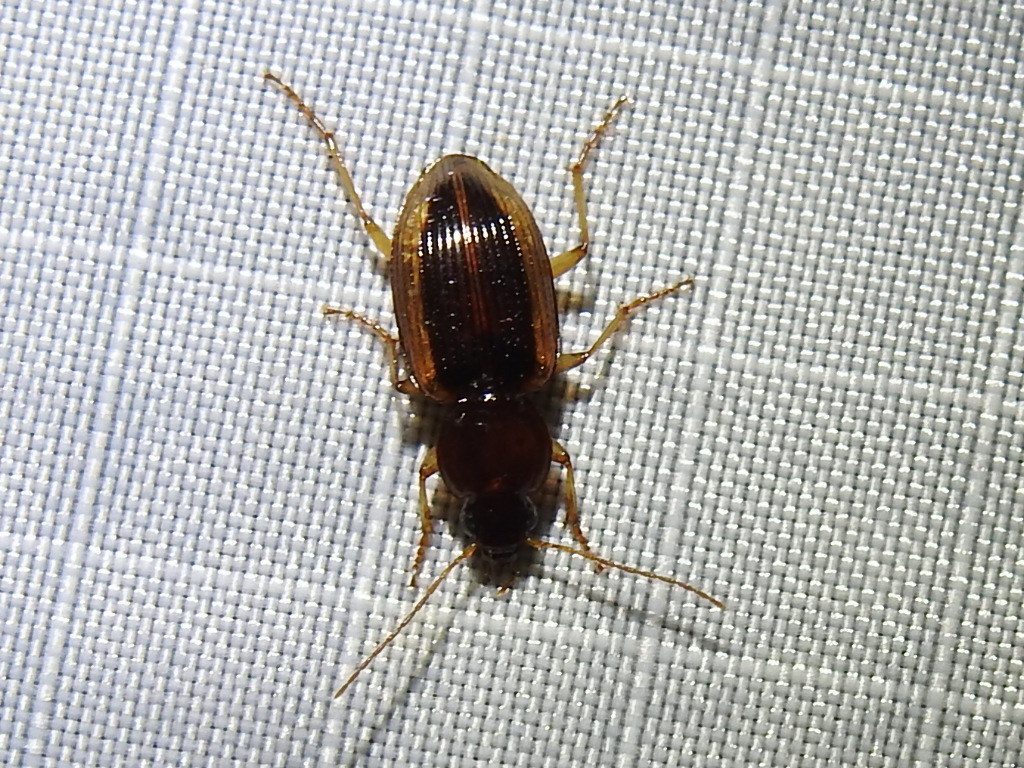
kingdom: Animalia
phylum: Arthropoda
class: Insecta
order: Coleoptera
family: Carabidae
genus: Agonum
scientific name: Agonum pallipes
